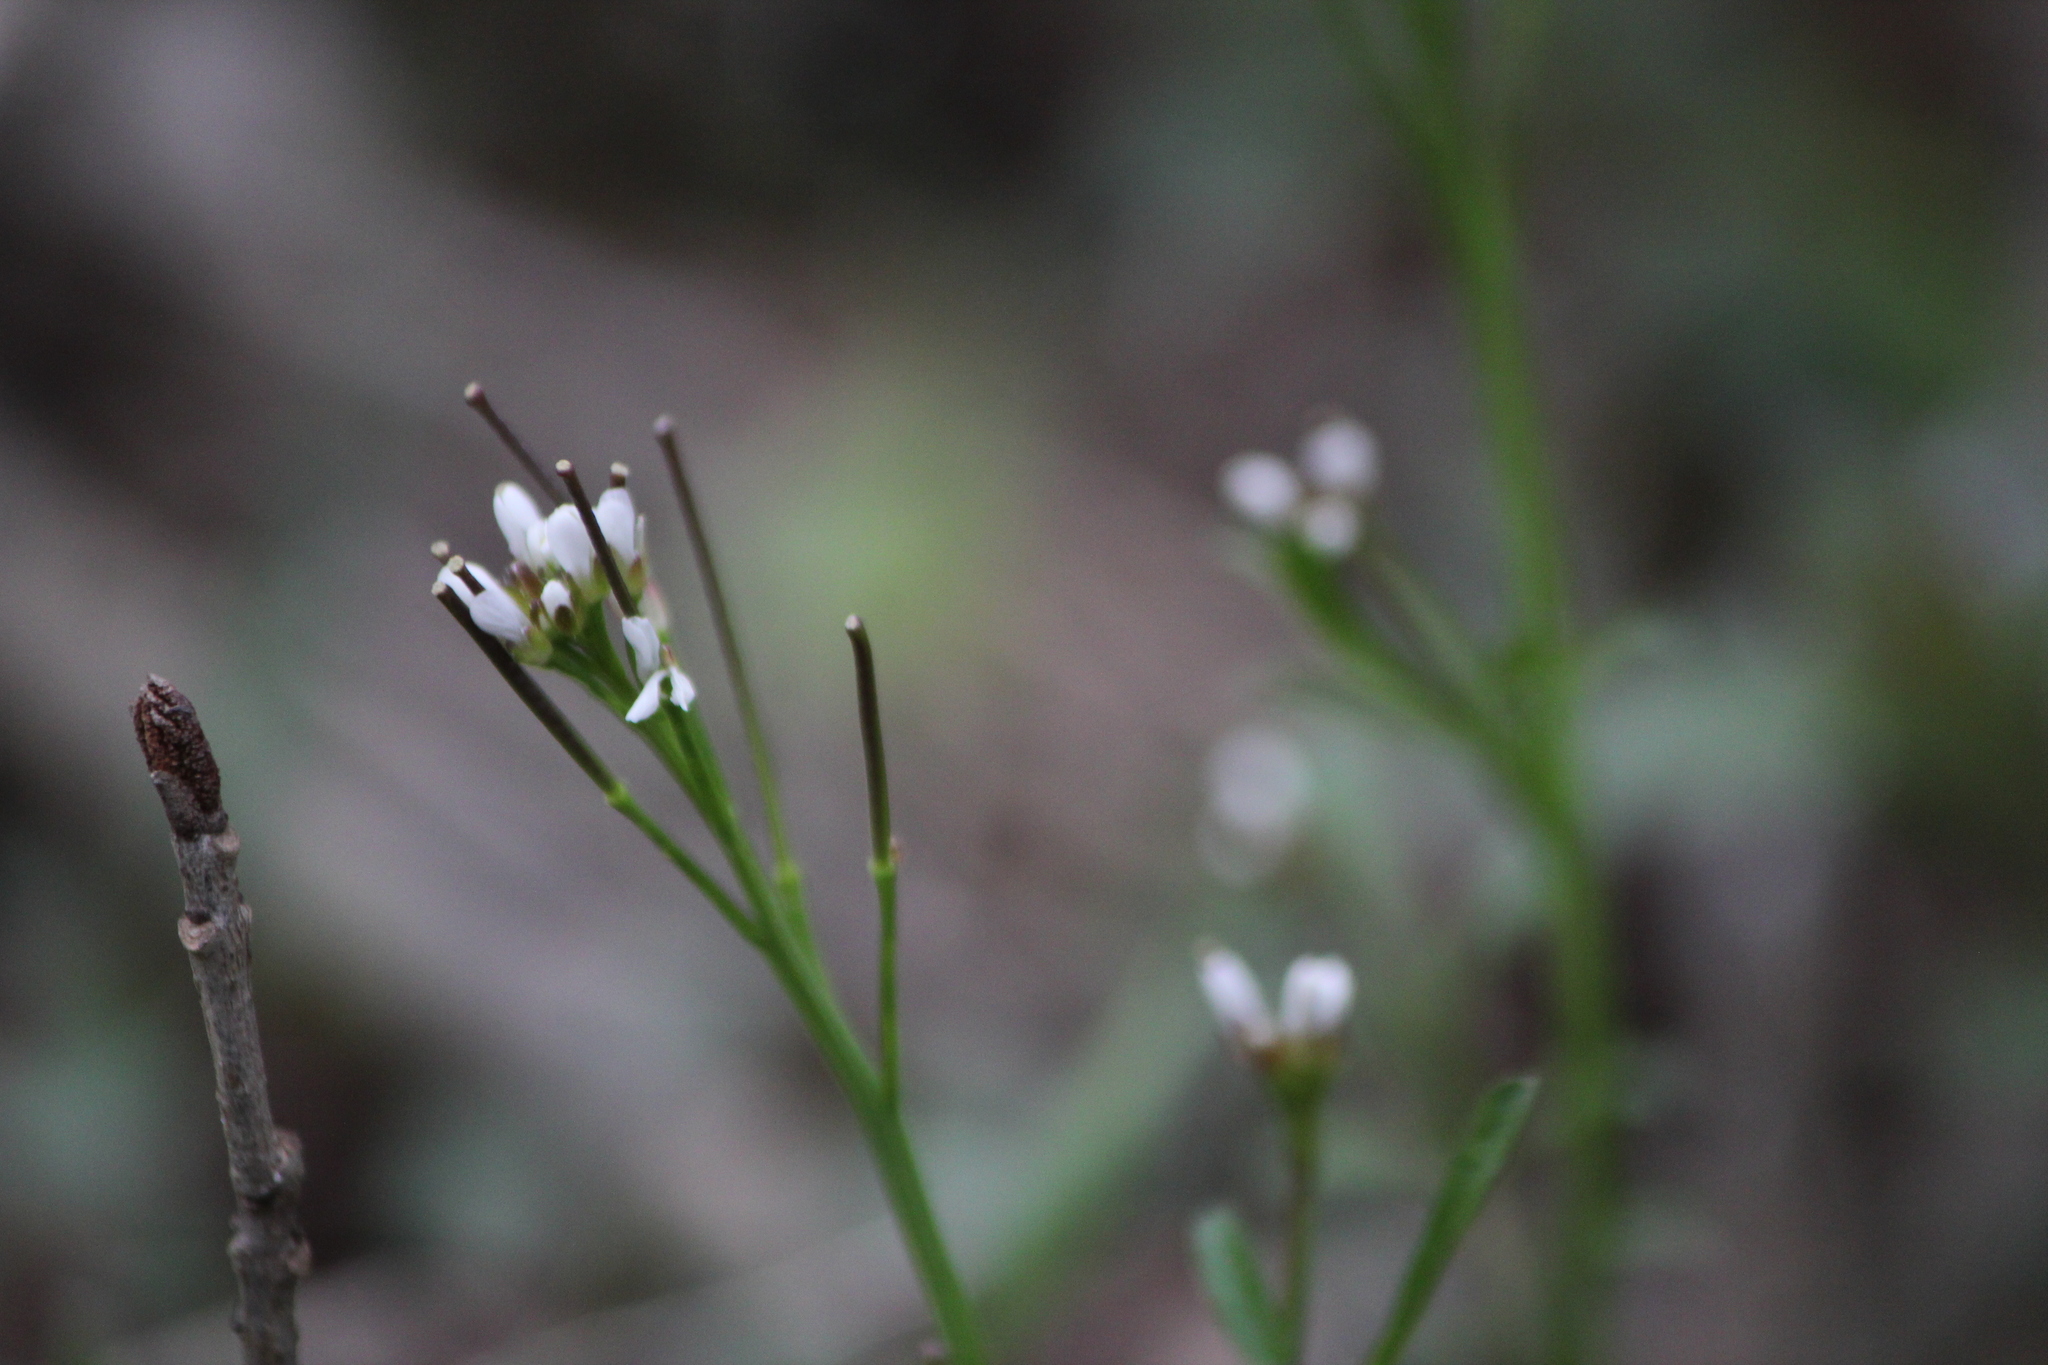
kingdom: Plantae
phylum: Tracheophyta
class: Magnoliopsida
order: Brassicales
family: Brassicaceae
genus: Cardamine
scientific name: Cardamine hirsuta
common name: Hairy bittercress
